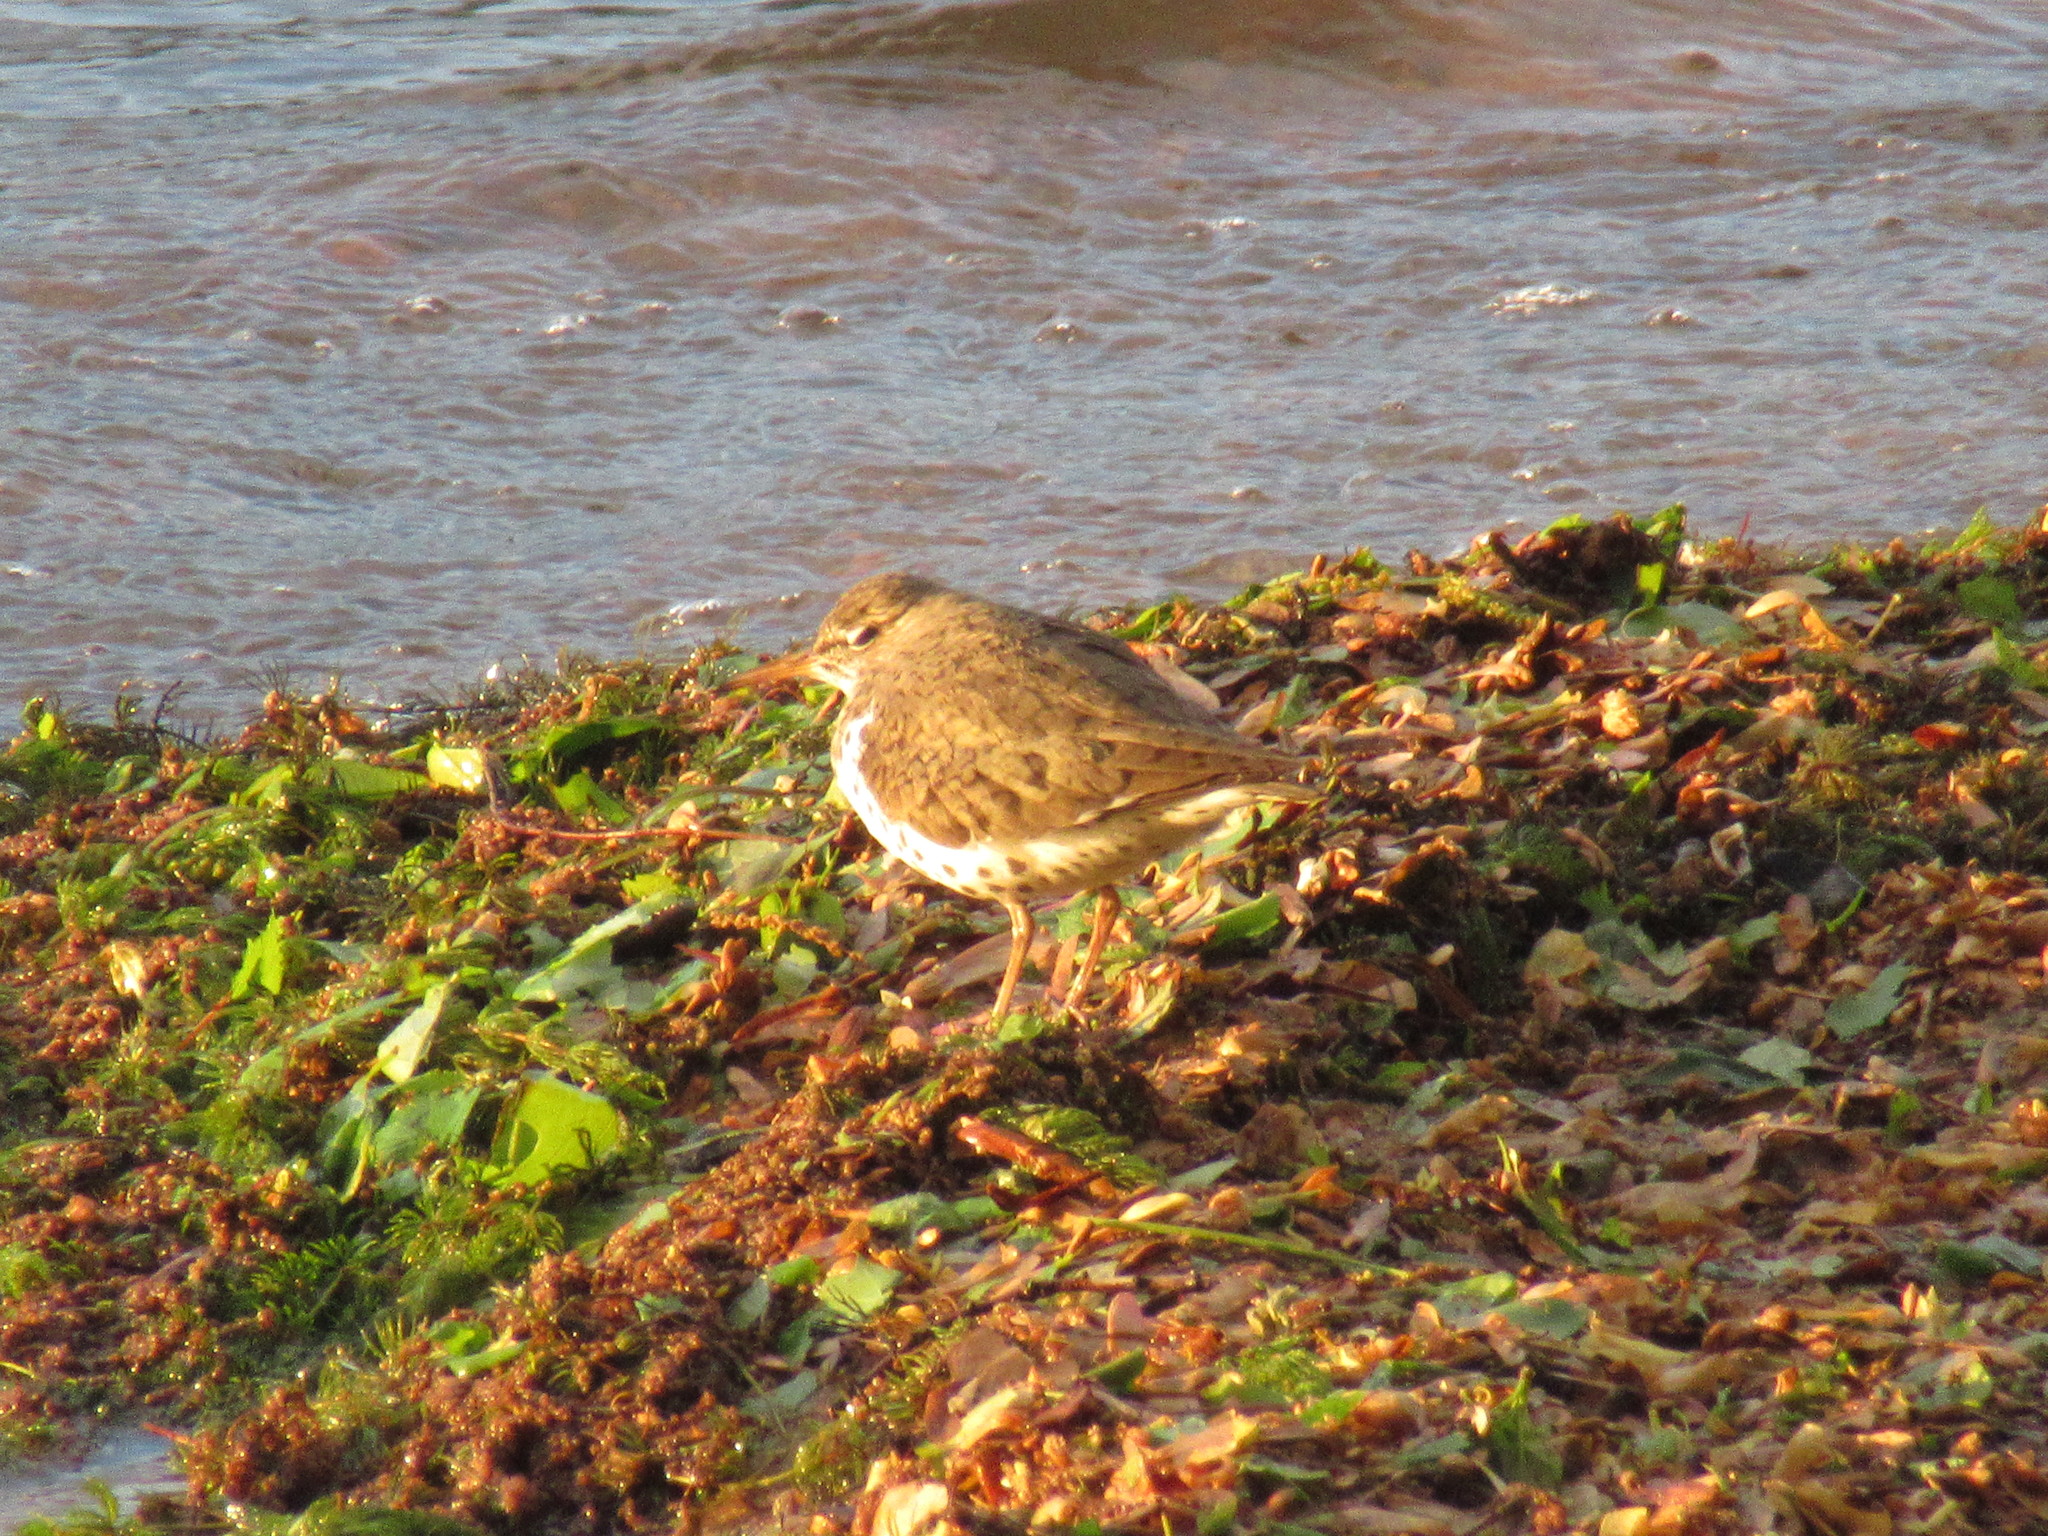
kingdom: Animalia
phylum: Chordata
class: Aves
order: Charadriiformes
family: Scolopacidae
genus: Actitis
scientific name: Actitis macularius
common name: Spotted sandpiper
